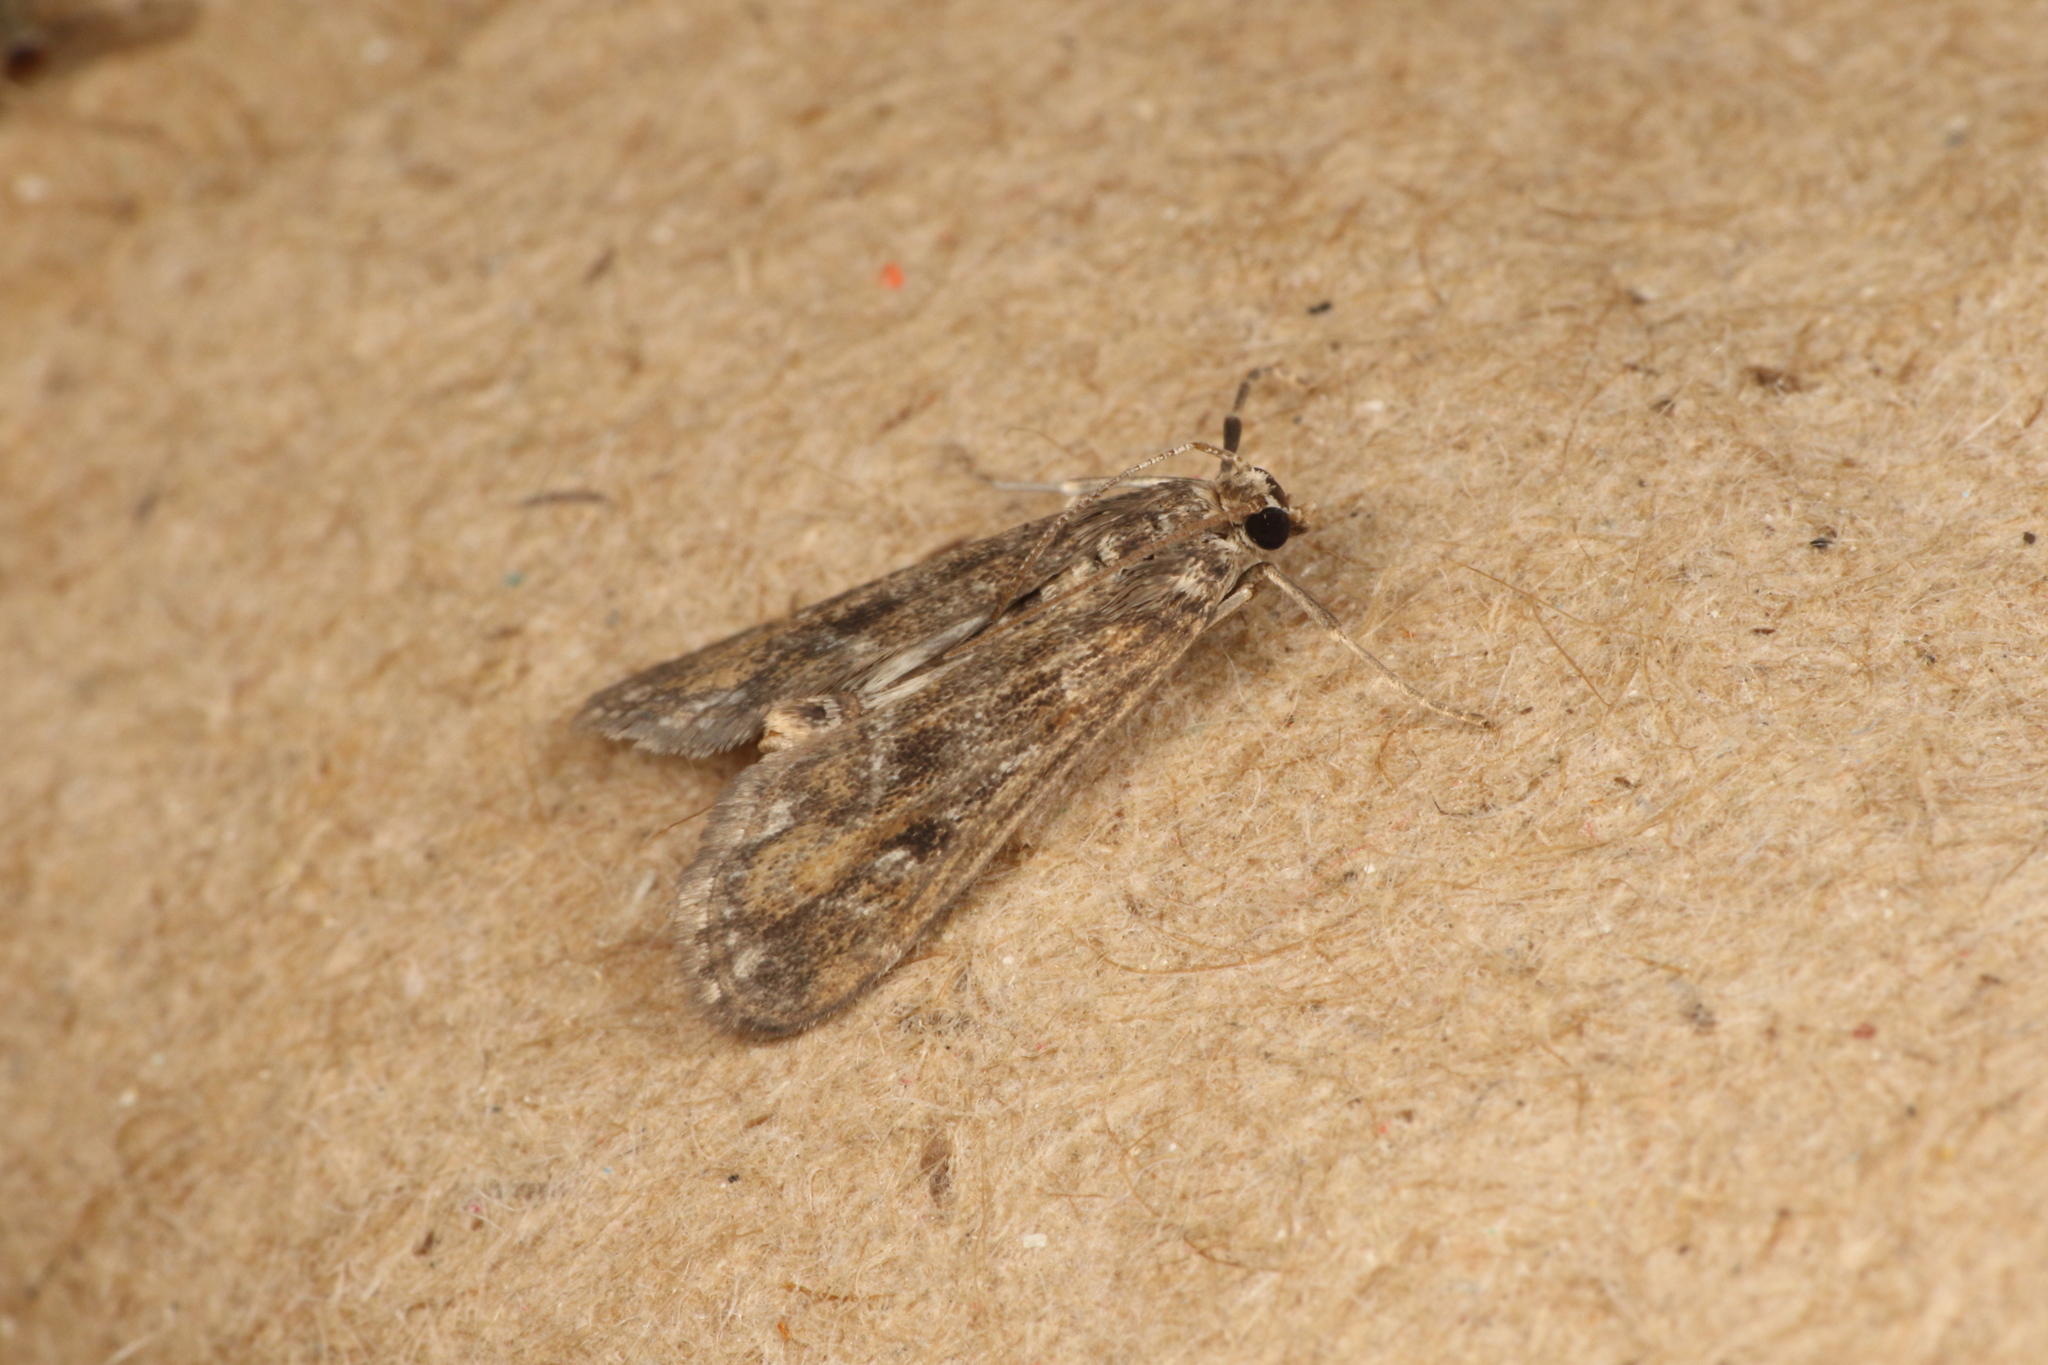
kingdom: Animalia
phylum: Arthropoda
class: Insecta
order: Lepidoptera
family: Crambidae
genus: Hygraula
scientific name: Hygraula nitens
